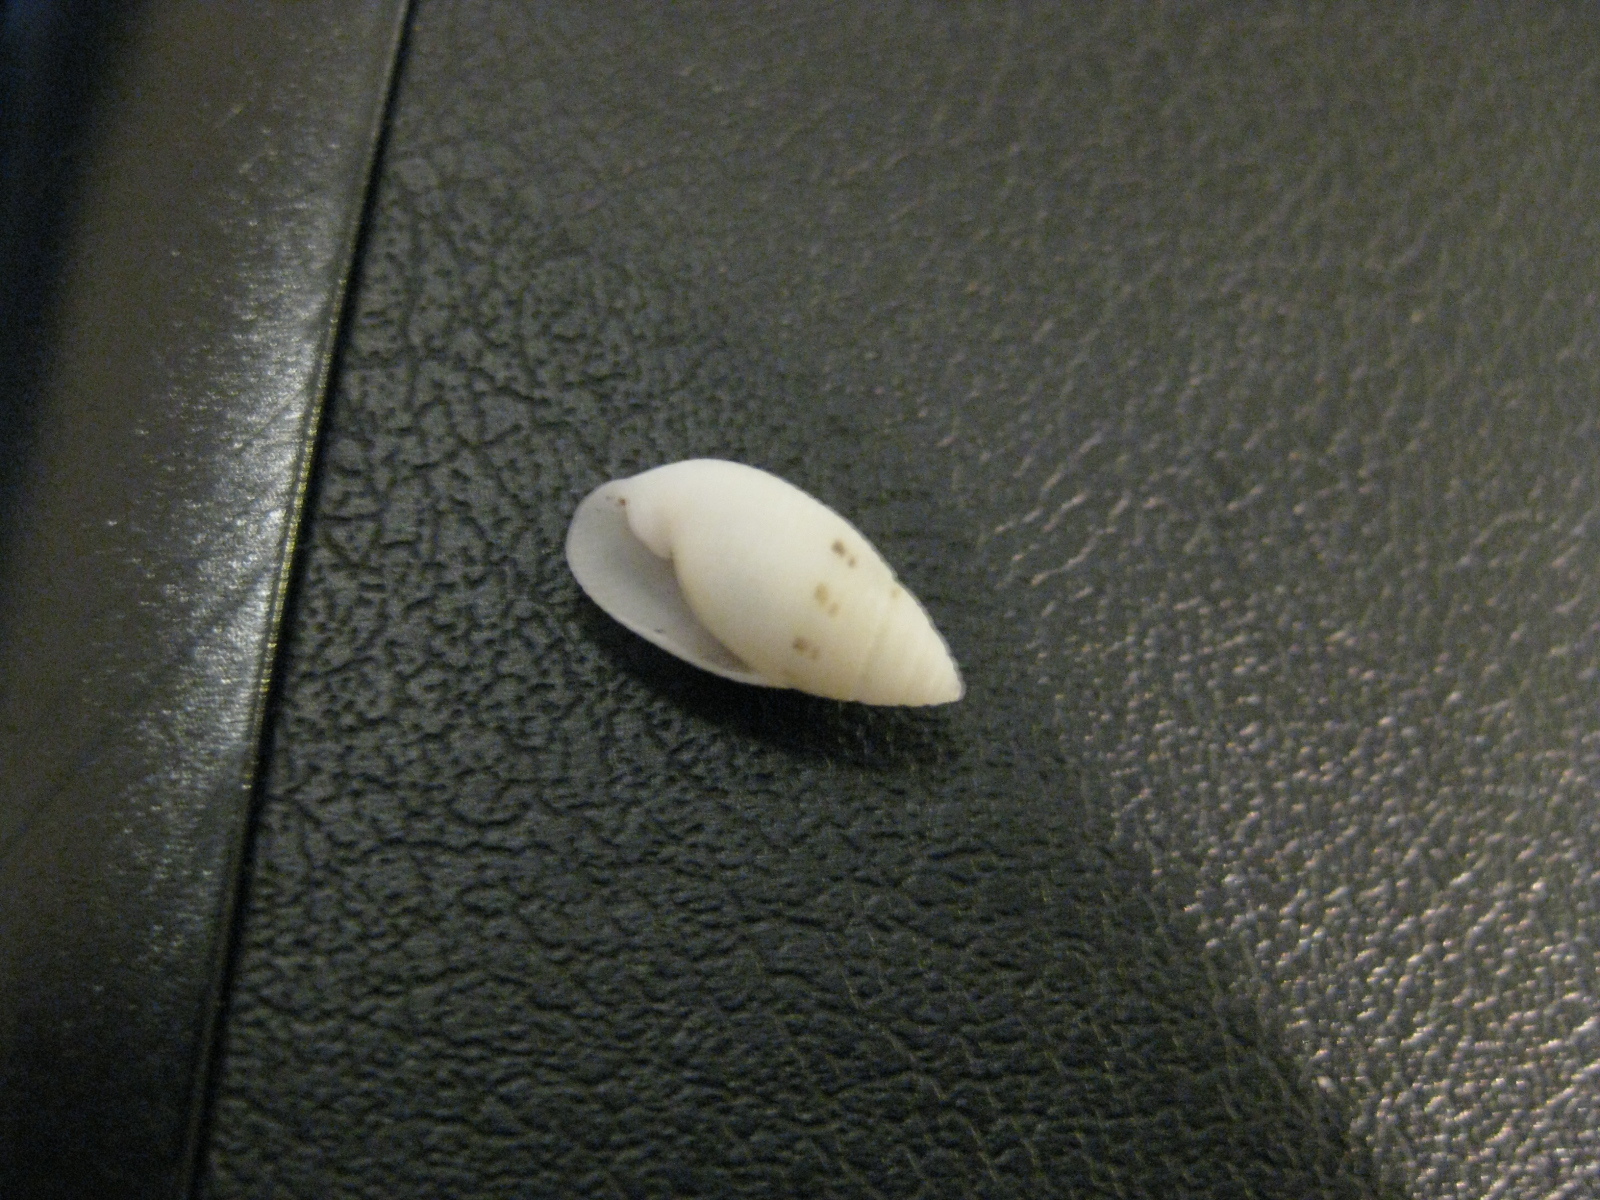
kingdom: Animalia
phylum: Mollusca
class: Gastropoda
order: Cephalaspidea
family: Acteonidae
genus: Pupa
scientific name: Pupa affinis
